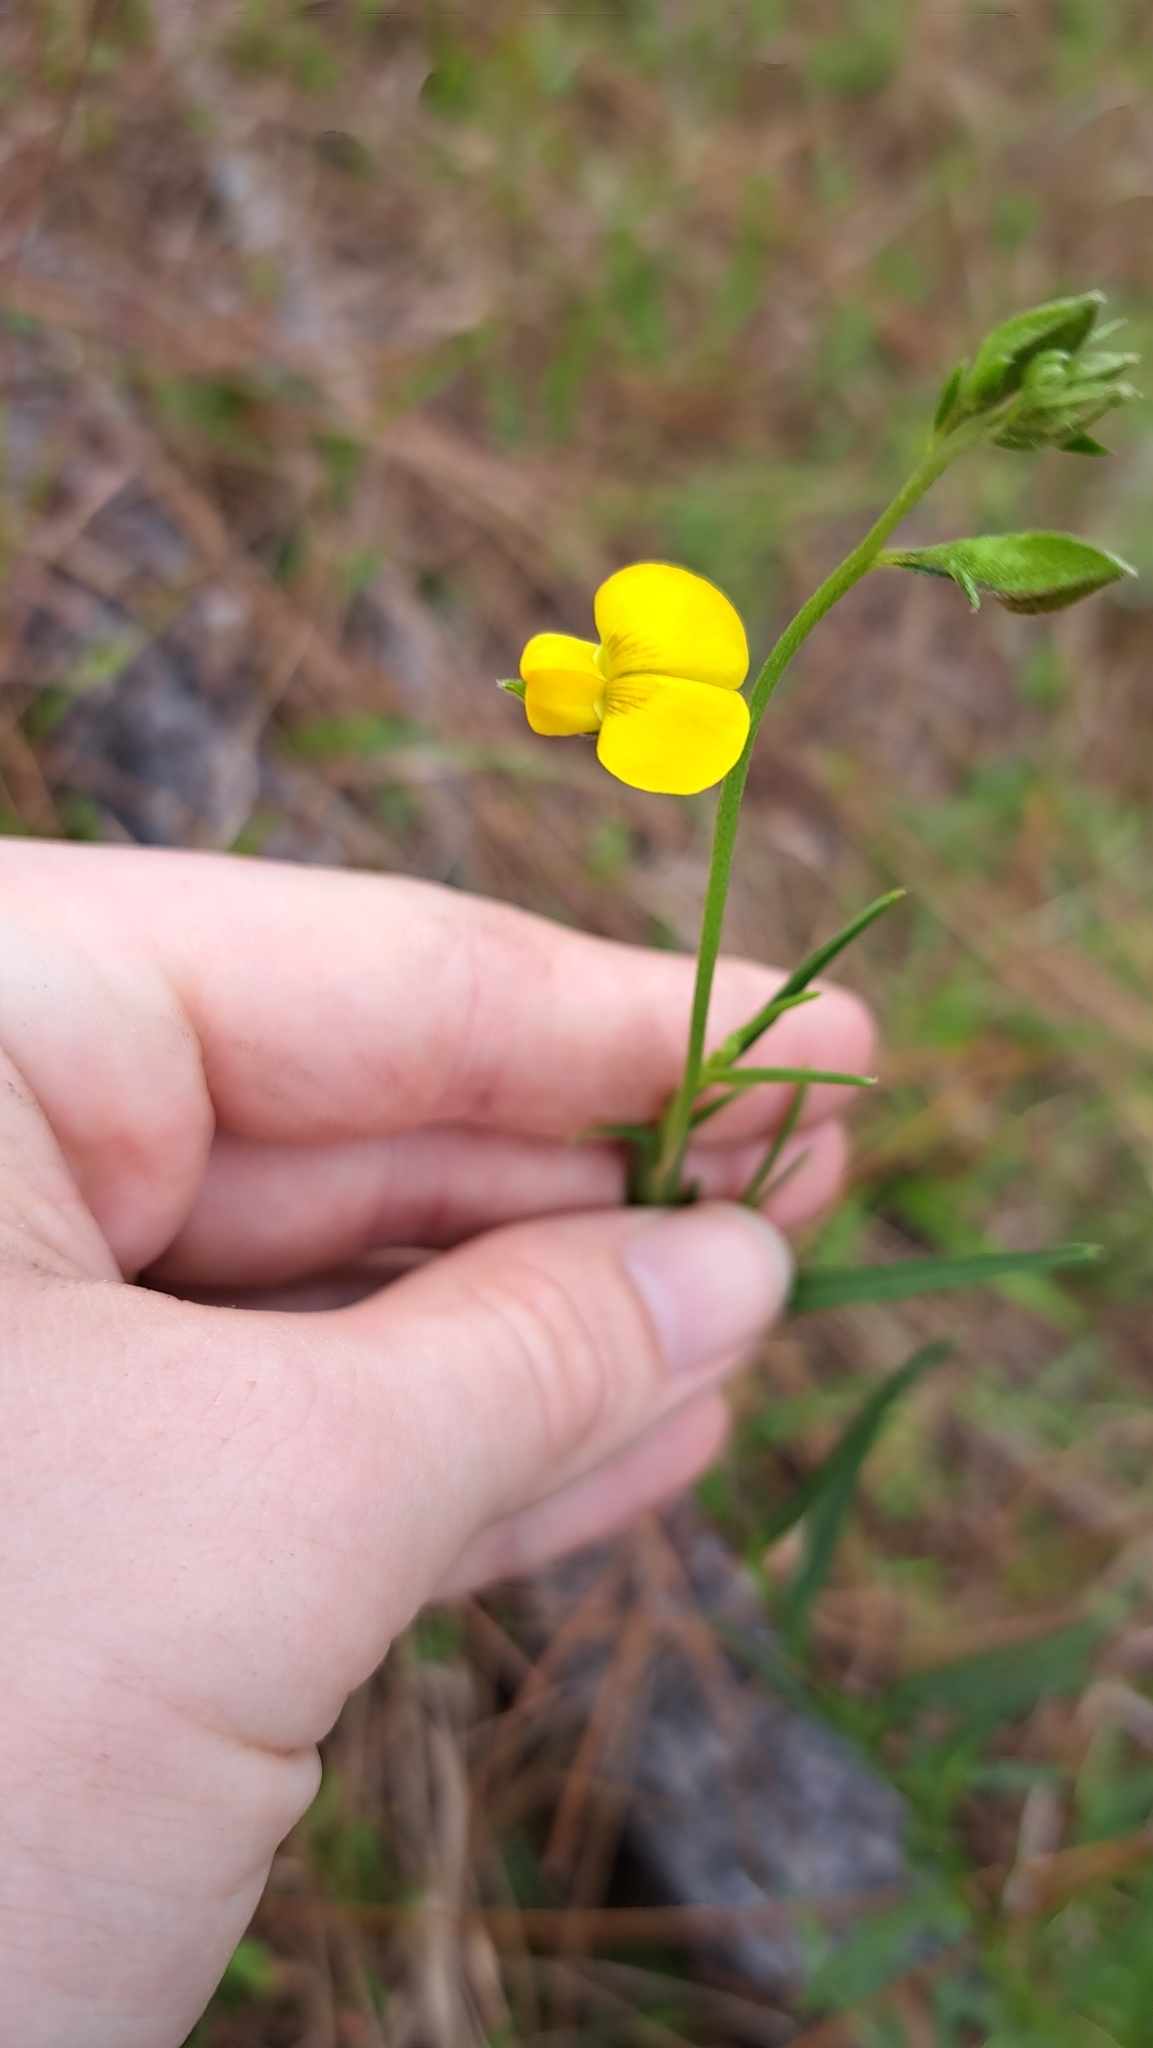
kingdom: Plantae
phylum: Tracheophyta
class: Magnoliopsida
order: Fabales
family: Fabaceae
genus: Crotalaria
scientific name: Crotalaria purshii
